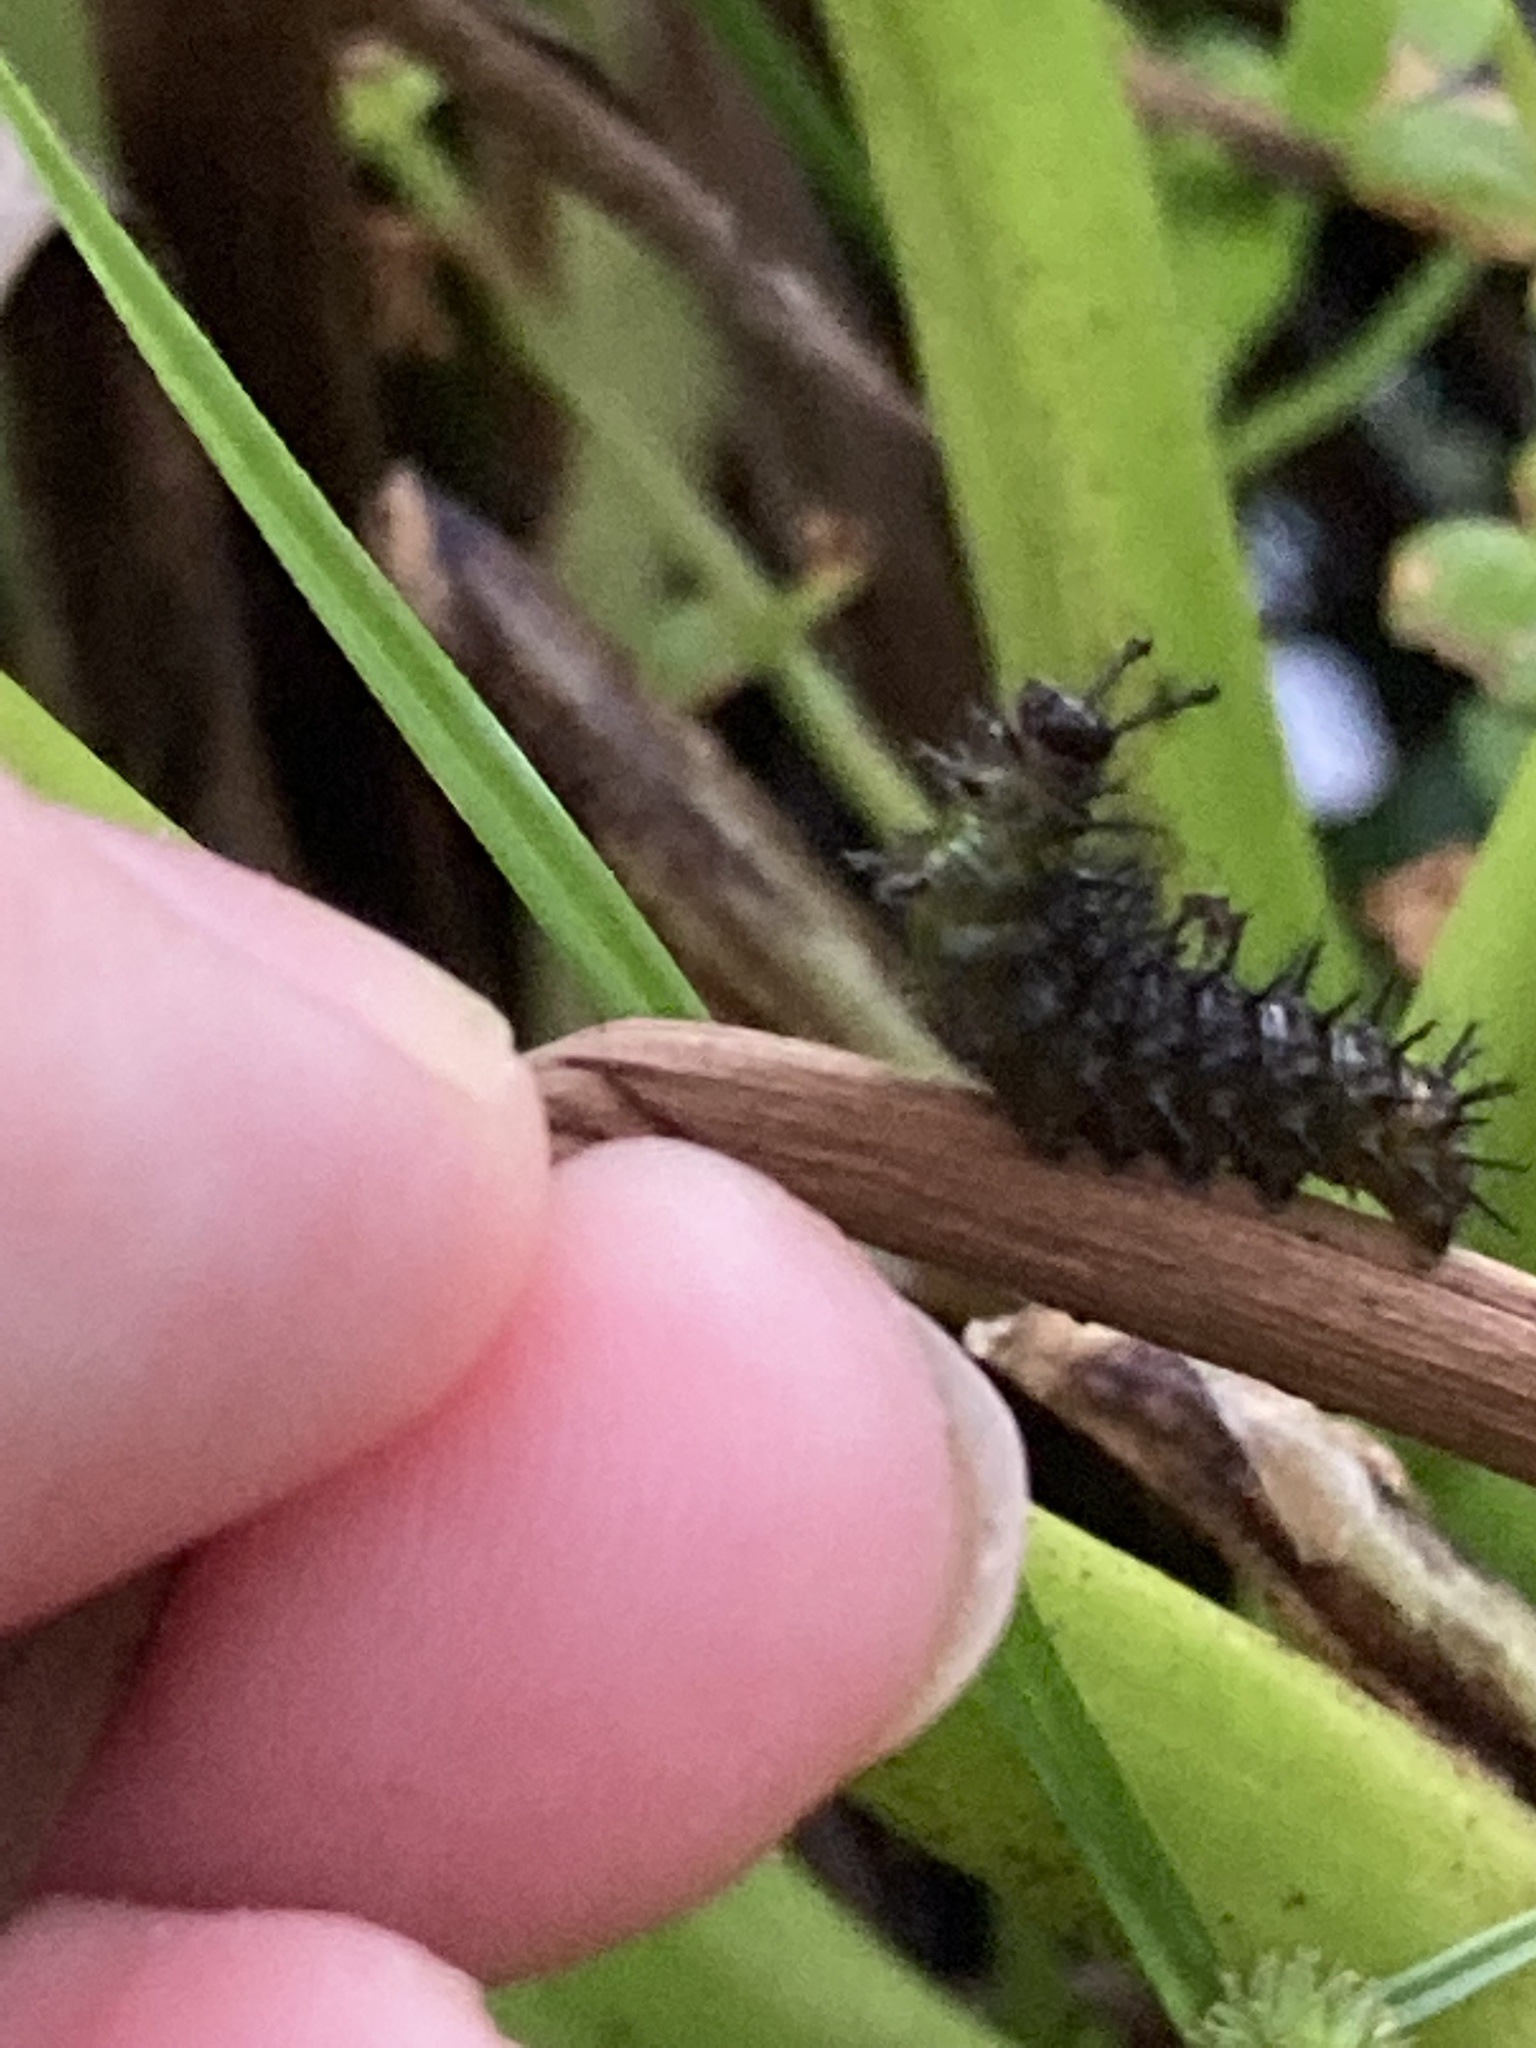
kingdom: Animalia
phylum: Arthropoda
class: Insecta
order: Lepidoptera
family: Nymphalidae
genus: Anartia
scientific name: Anartia jatrophae
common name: White peacock
